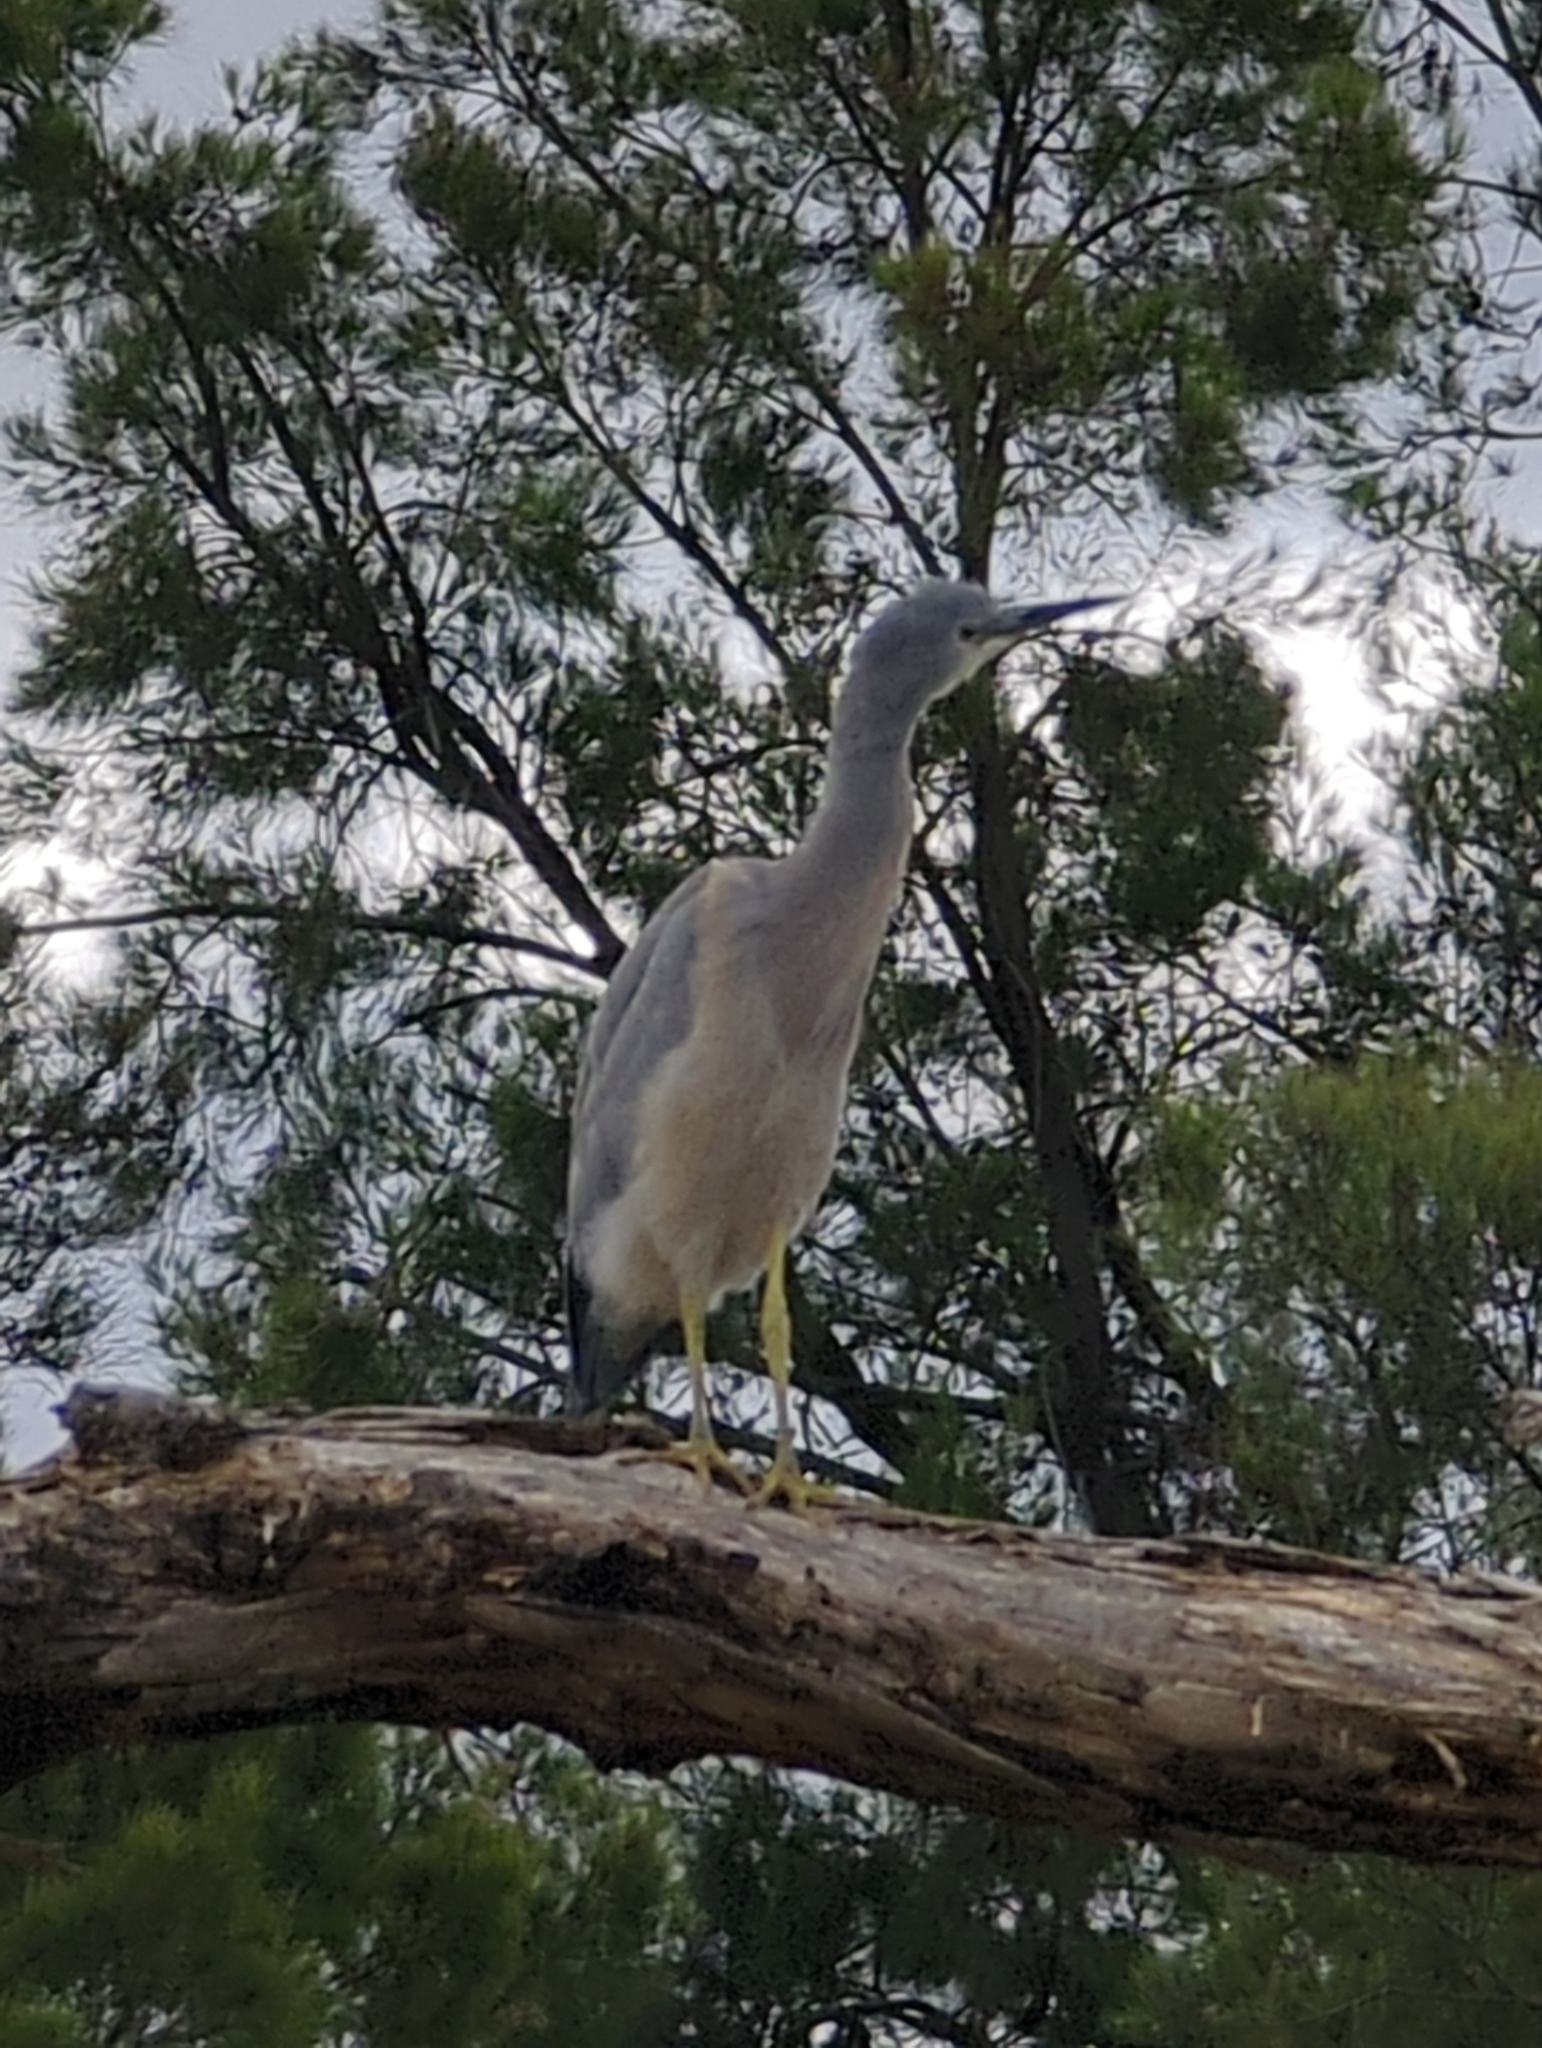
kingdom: Animalia
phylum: Chordata
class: Aves
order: Pelecaniformes
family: Ardeidae
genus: Egretta
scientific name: Egretta novaehollandiae
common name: White-faced heron
